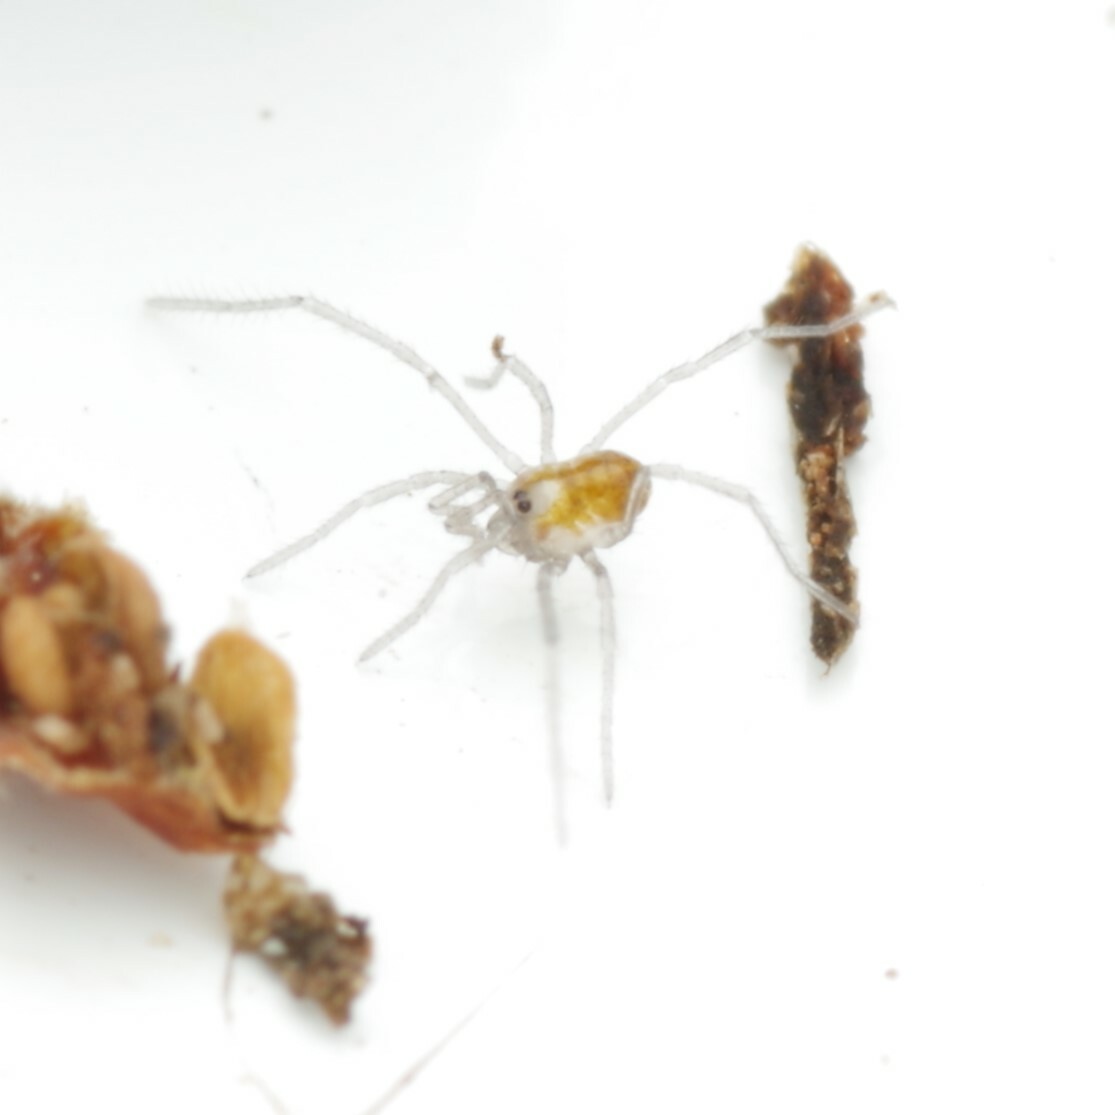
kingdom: Animalia
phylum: Arthropoda
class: Arachnida
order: Opiliones
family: Nemastomatidae
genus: Mitostoma
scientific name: Mitostoma chrysomelas
